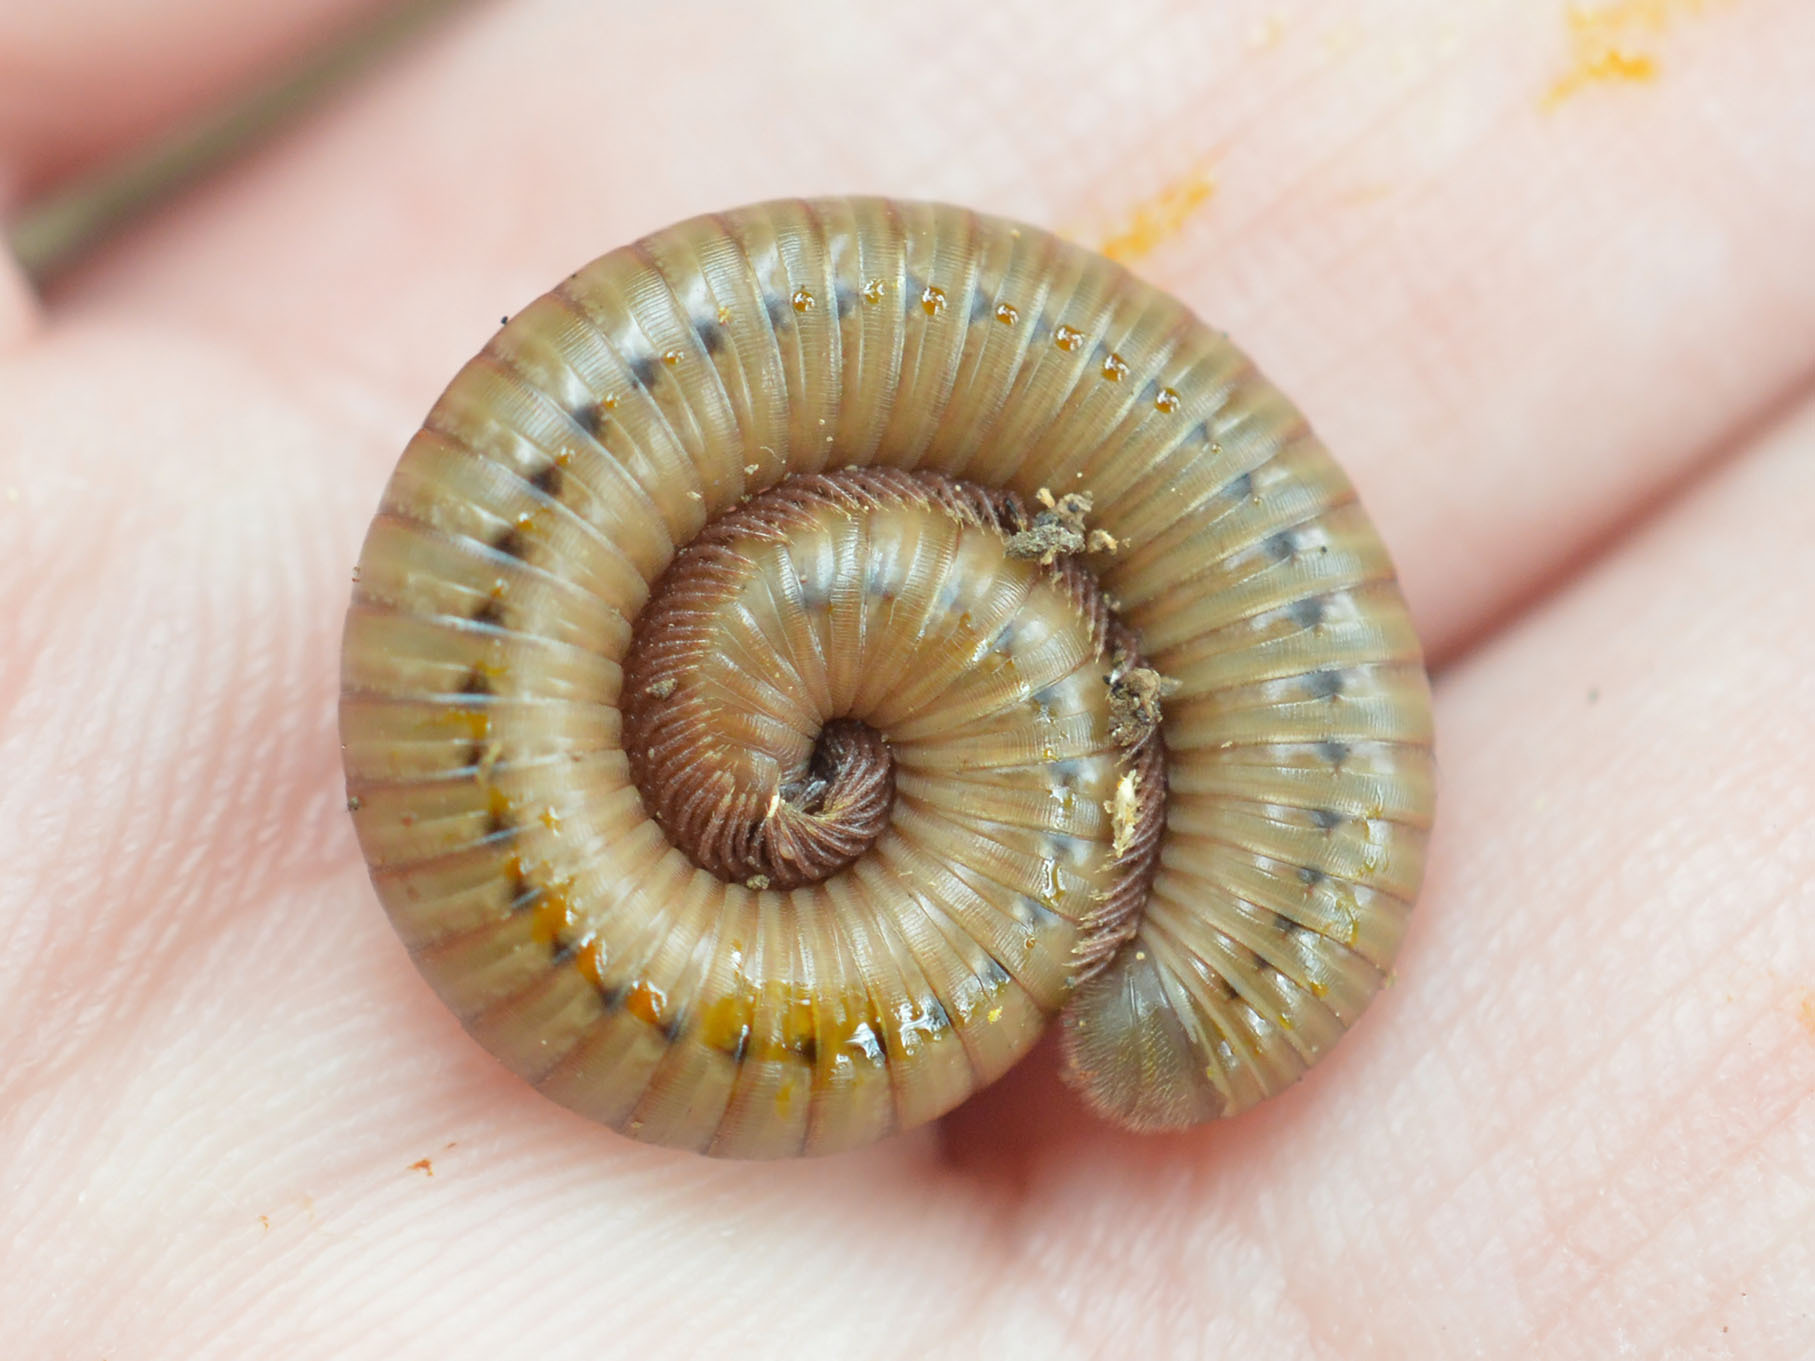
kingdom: Animalia
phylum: Arthropoda
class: Diplopoda
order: Julida
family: Julidae
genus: Pachyiulus
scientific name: Pachyiulus cattarensis
